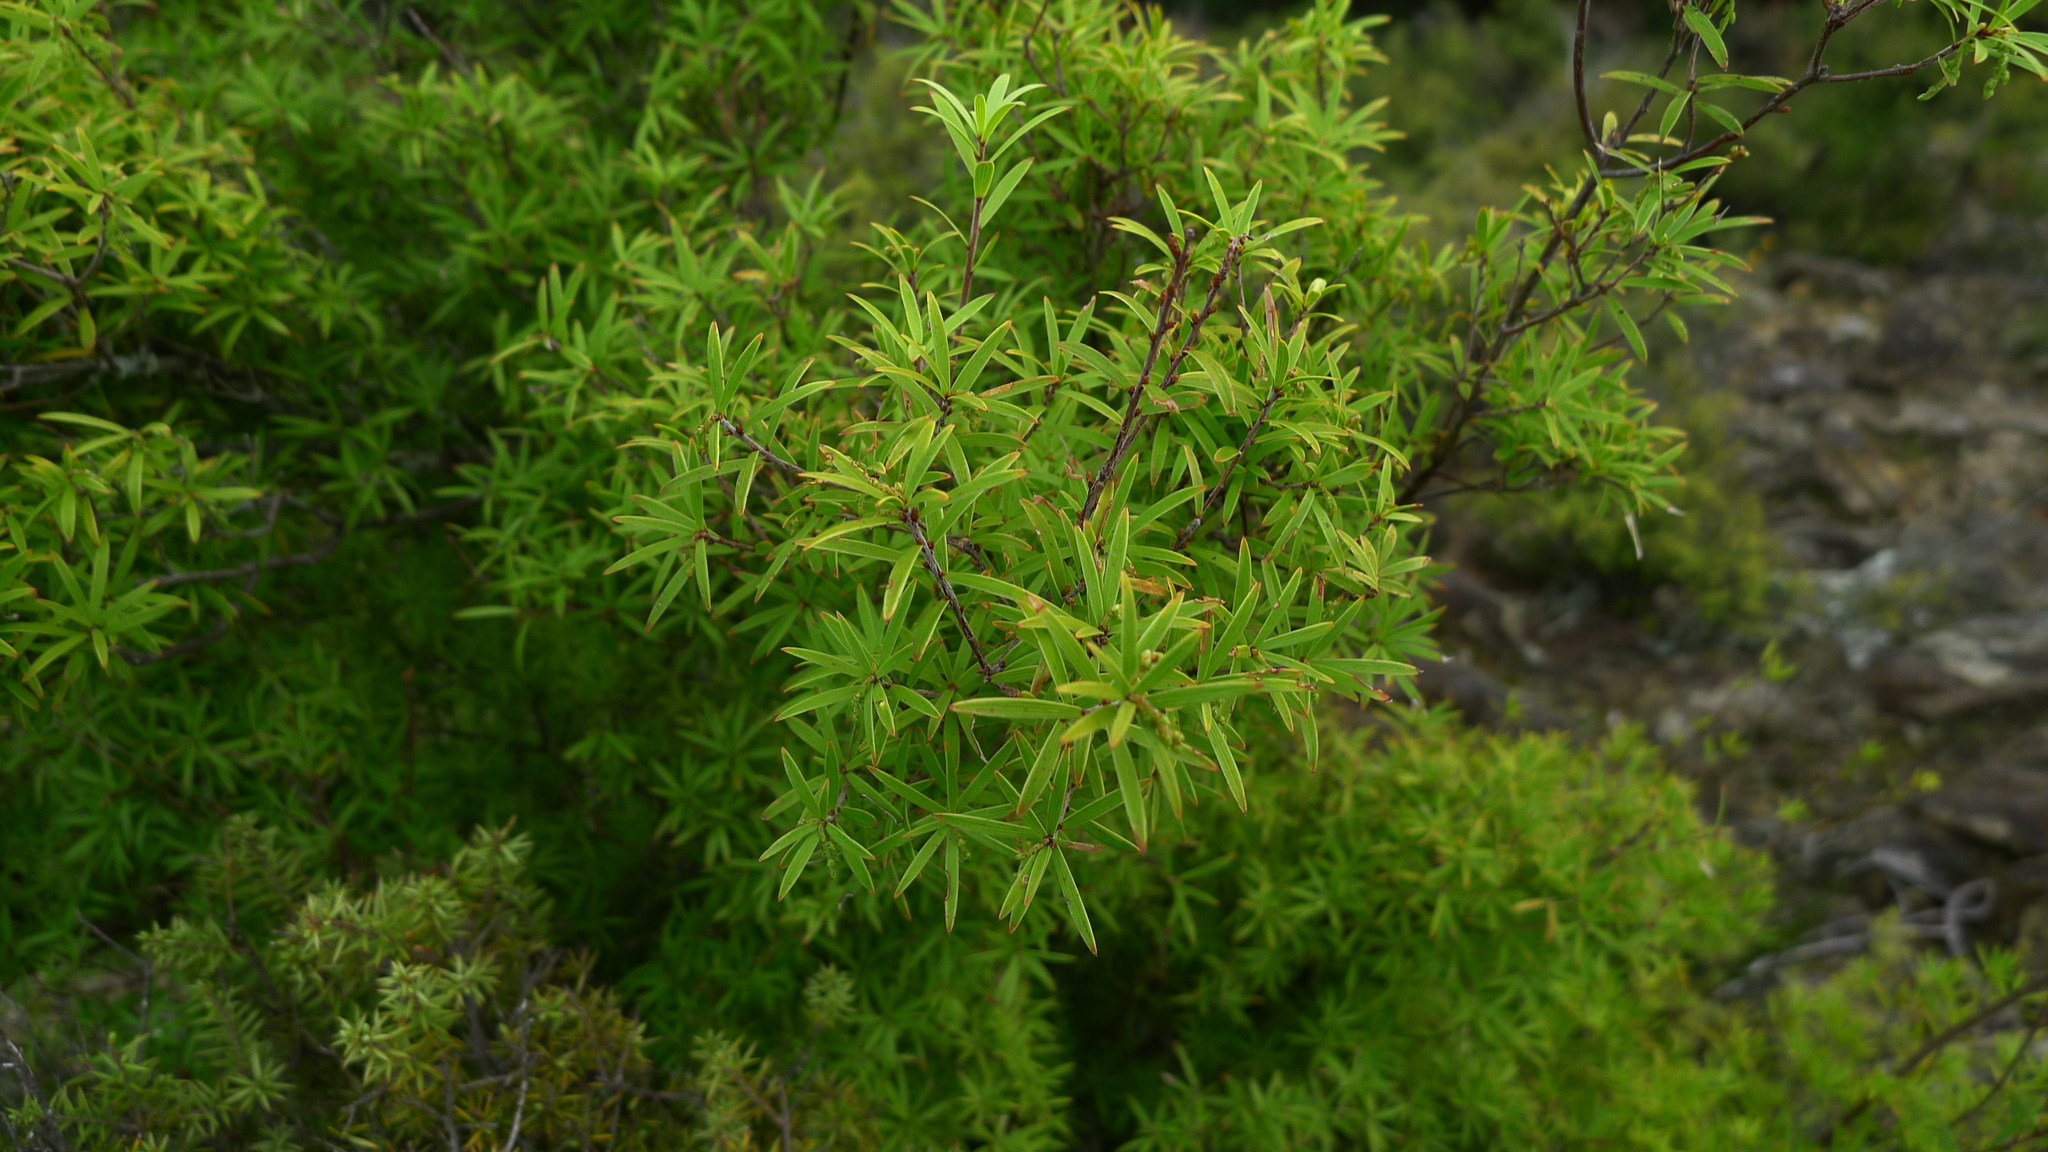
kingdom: Plantae
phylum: Tracheophyta
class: Magnoliopsida
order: Ericales
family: Ericaceae
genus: Leucopogon
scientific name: Leucopogon fasciculatus
